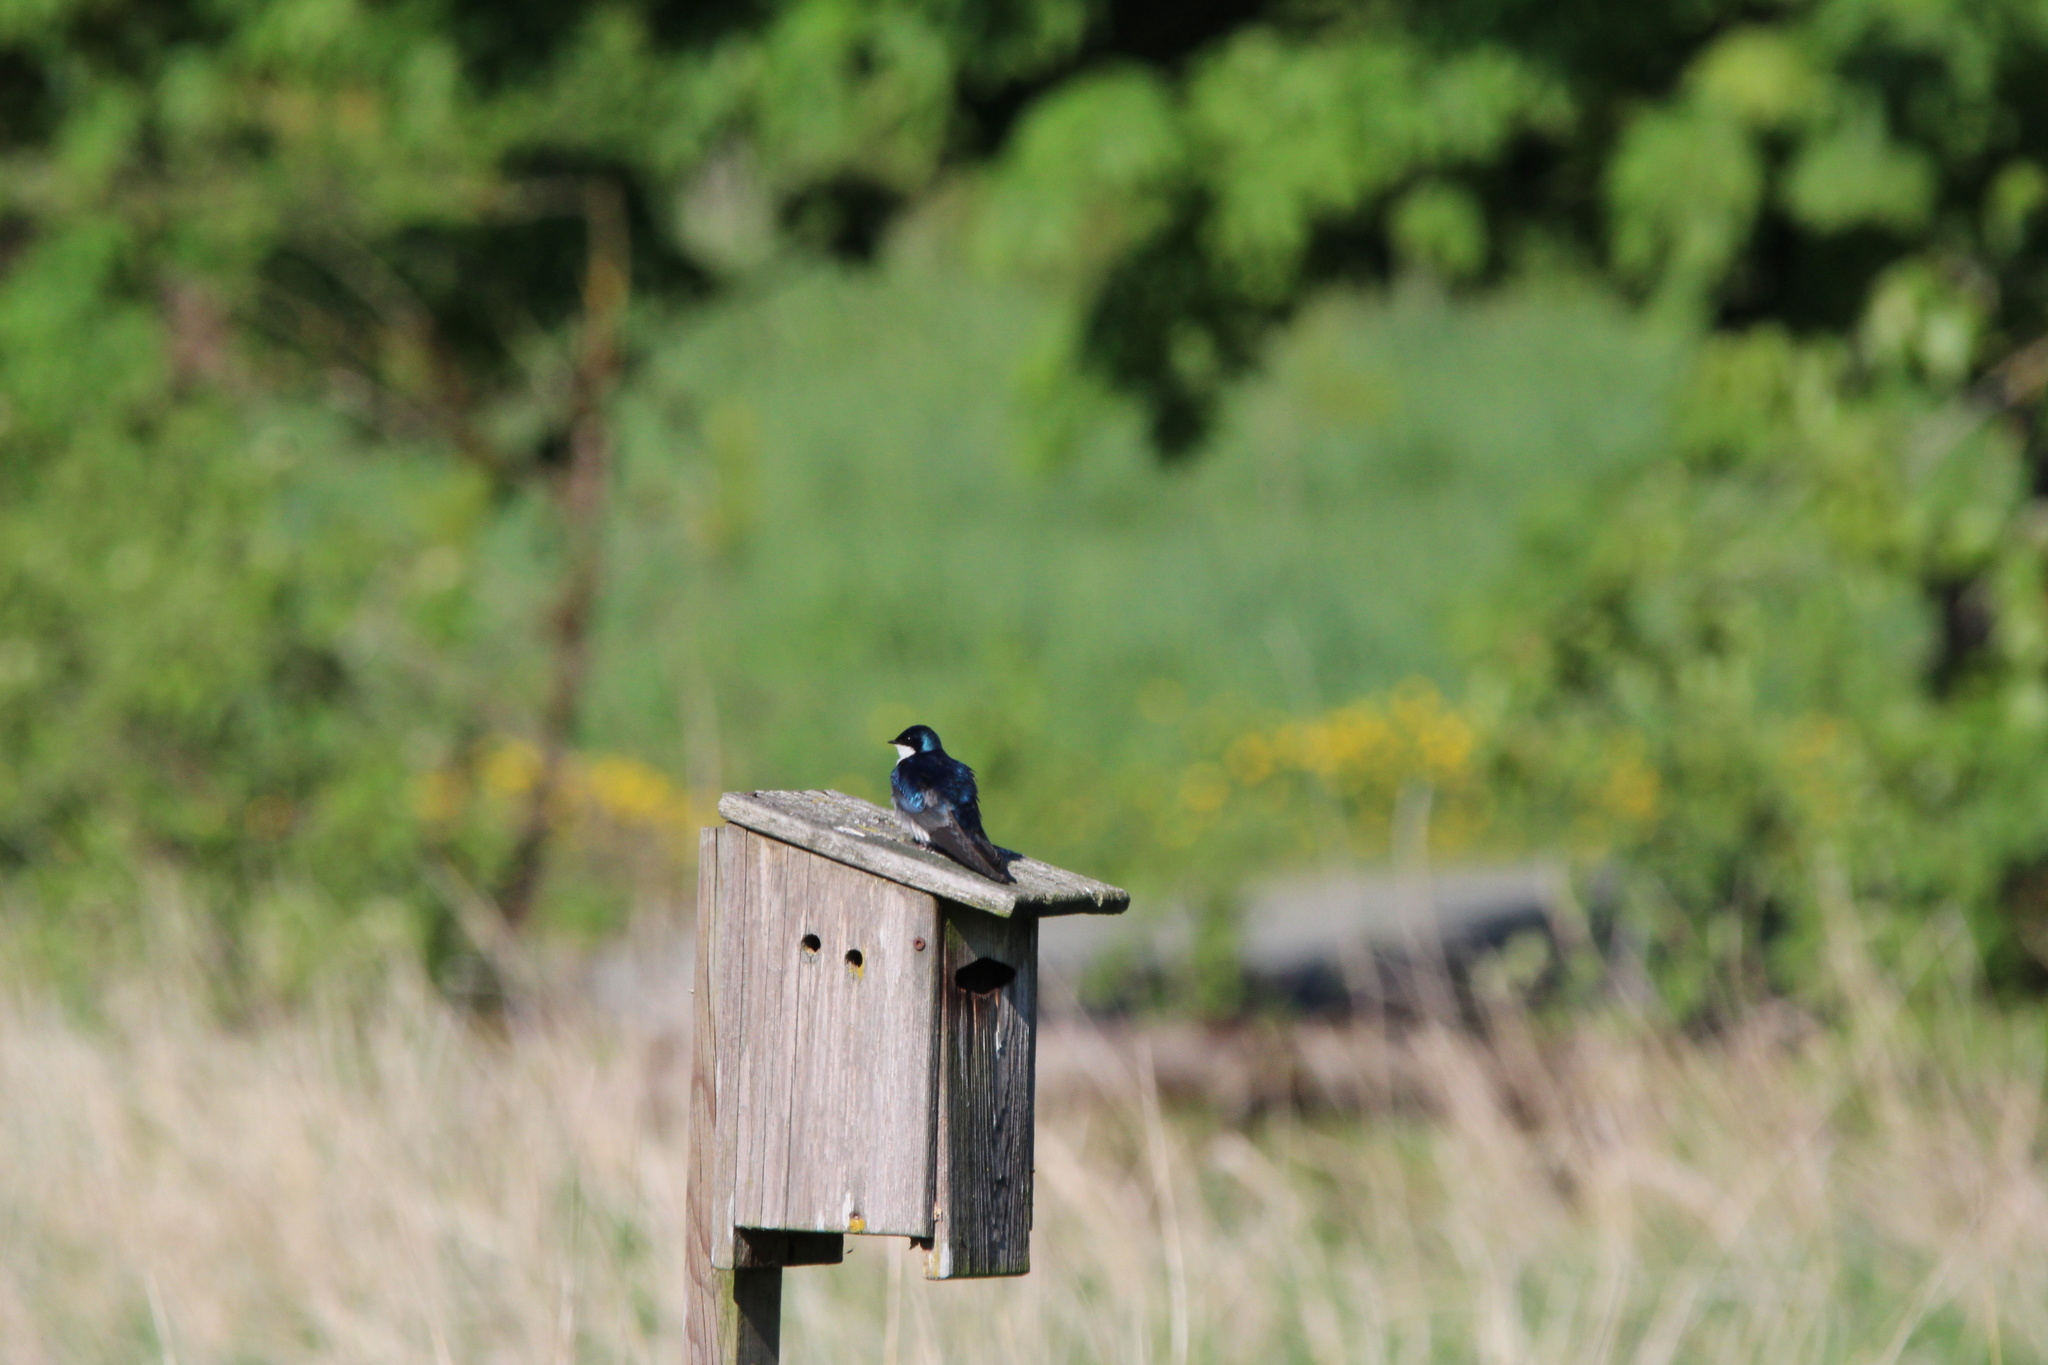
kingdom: Animalia
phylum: Chordata
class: Aves
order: Passeriformes
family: Hirundinidae
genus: Tachycineta
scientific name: Tachycineta bicolor
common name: Tree swallow
